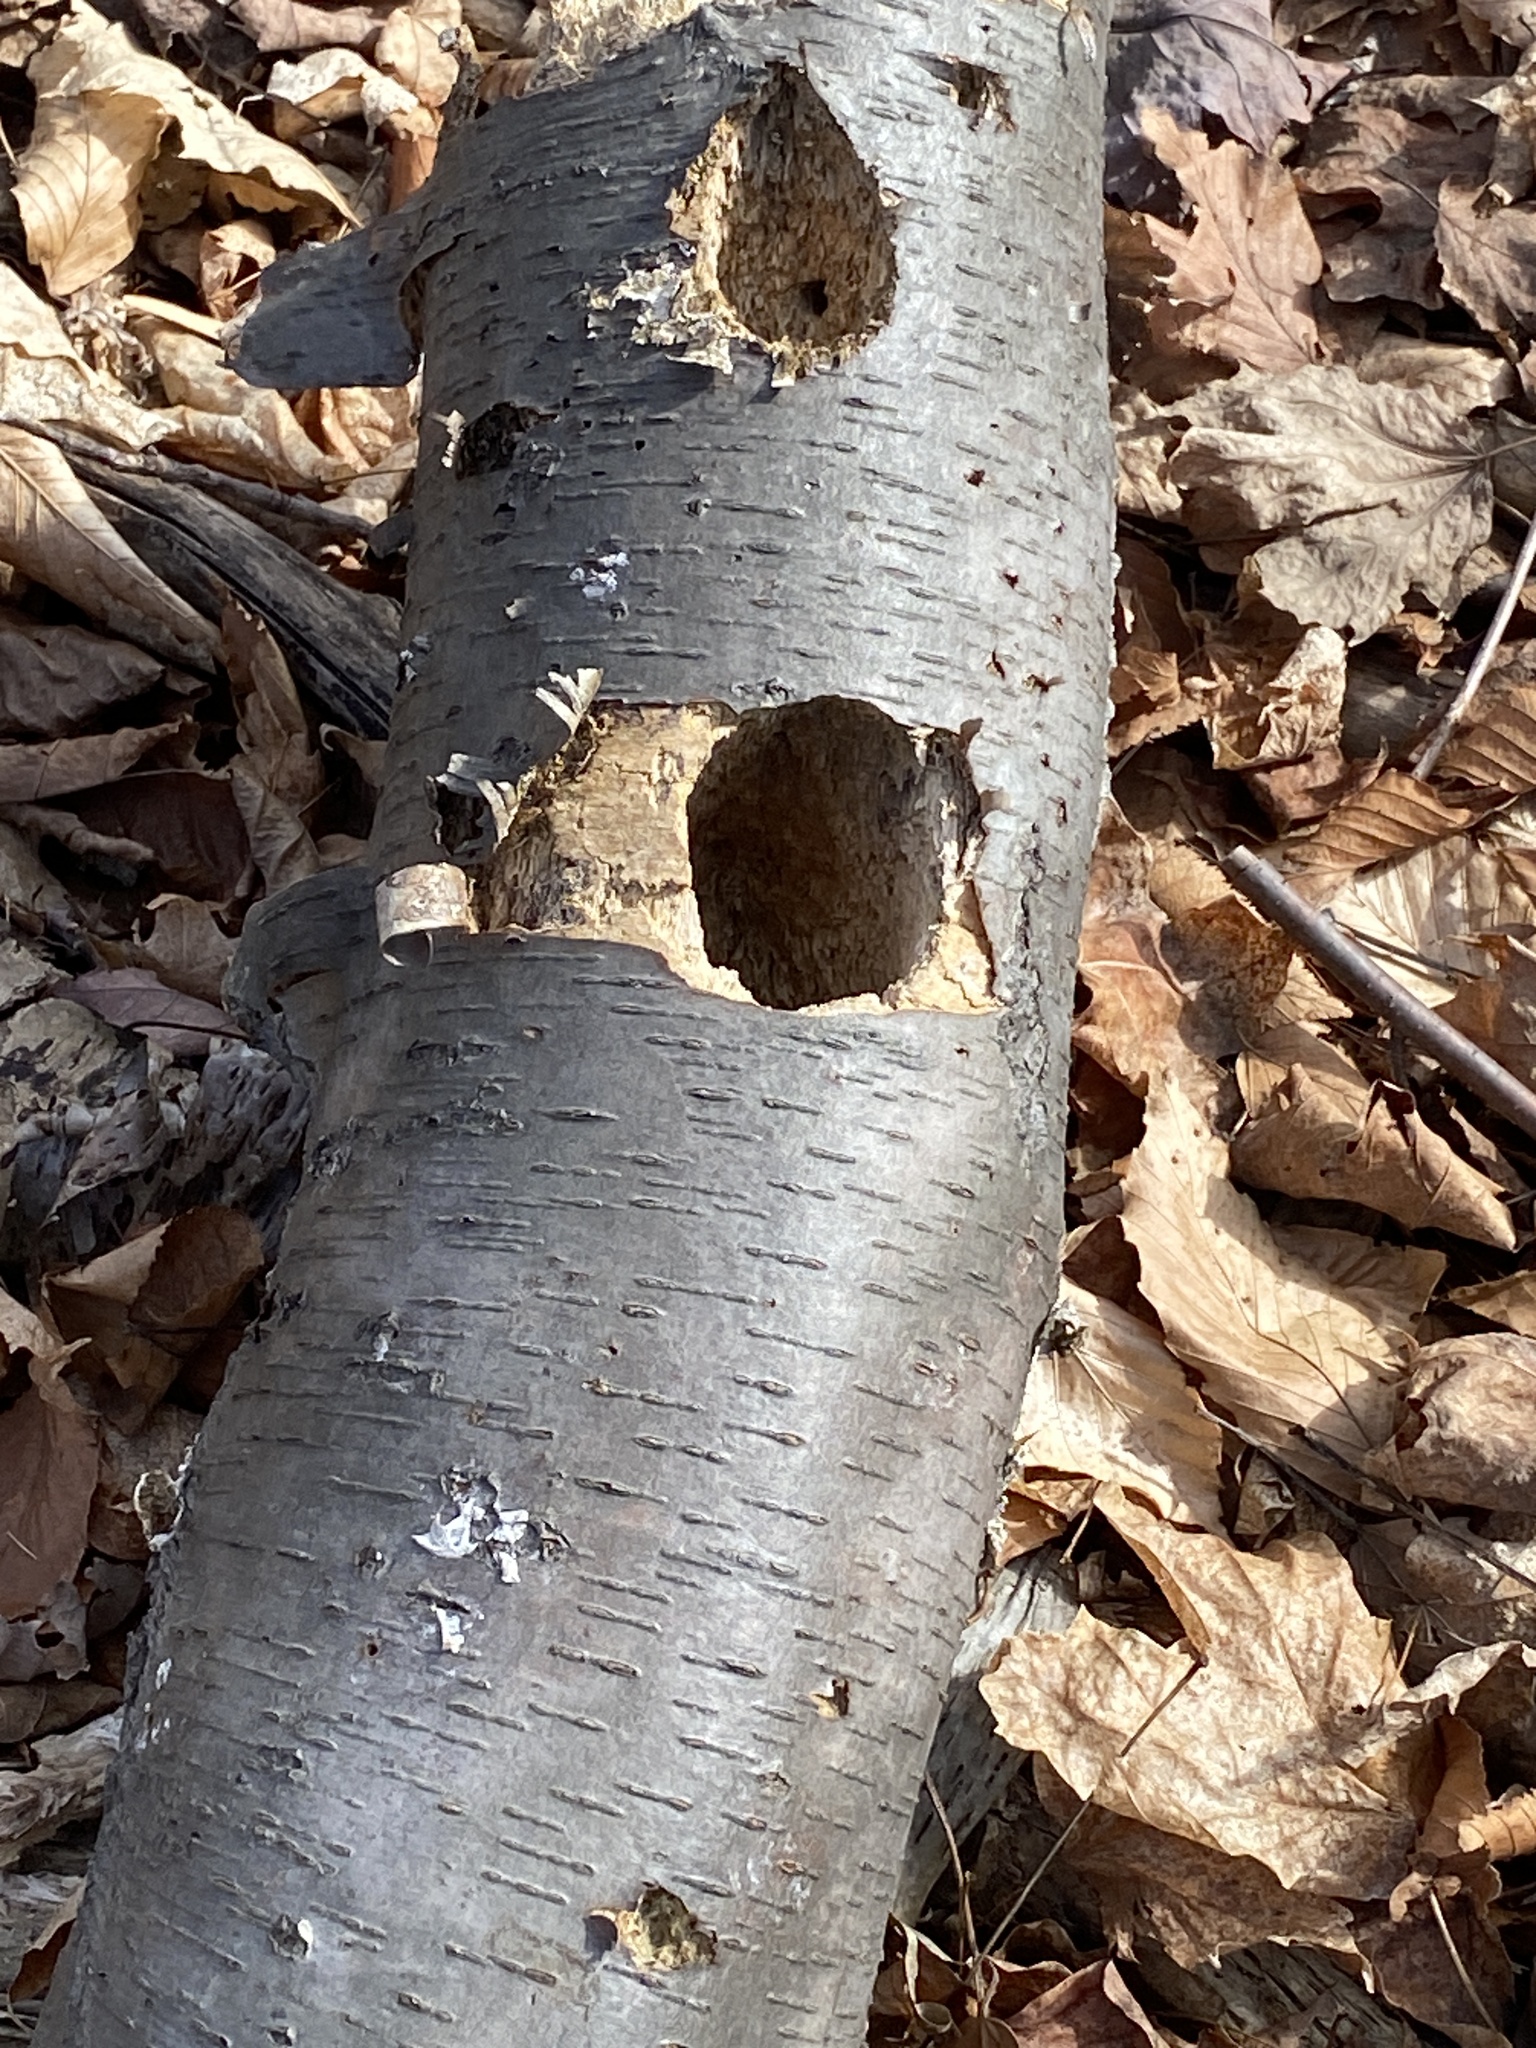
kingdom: Animalia
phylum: Chordata
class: Aves
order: Piciformes
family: Picidae
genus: Dryocopus
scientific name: Dryocopus pileatus
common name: Pileated woodpecker
